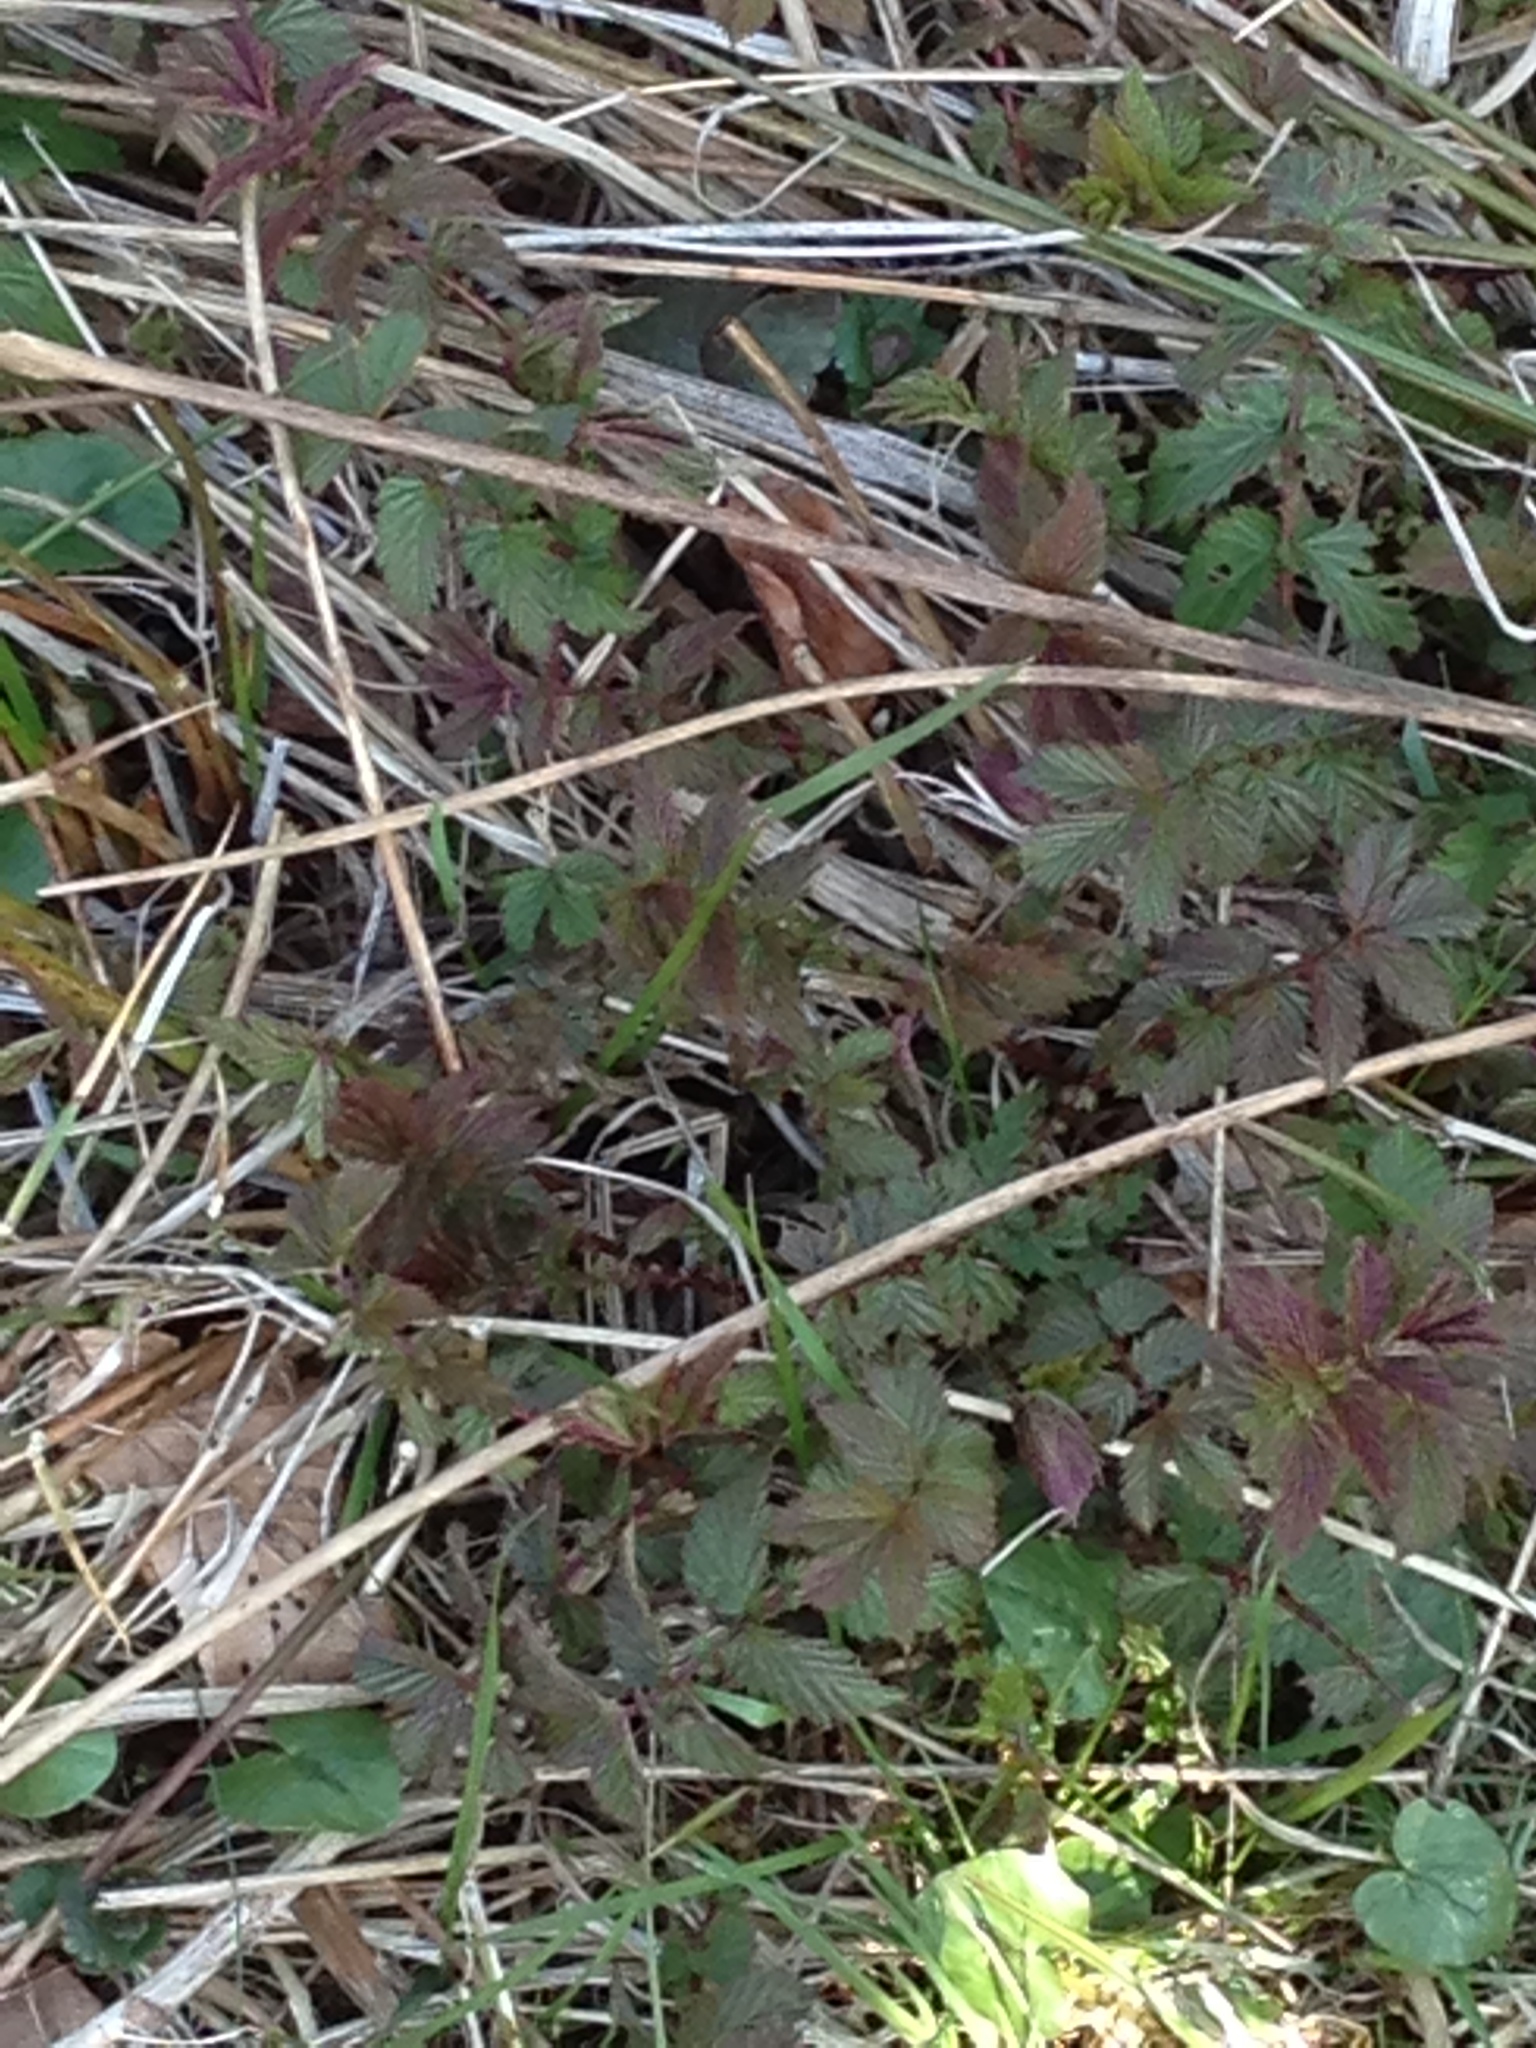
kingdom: Plantae
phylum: Tracheophyta
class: Magnoliopsida
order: Rosales
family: Rosaceae
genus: Filipendula
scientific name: Filipendula ulmaria
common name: Meadowsweet
